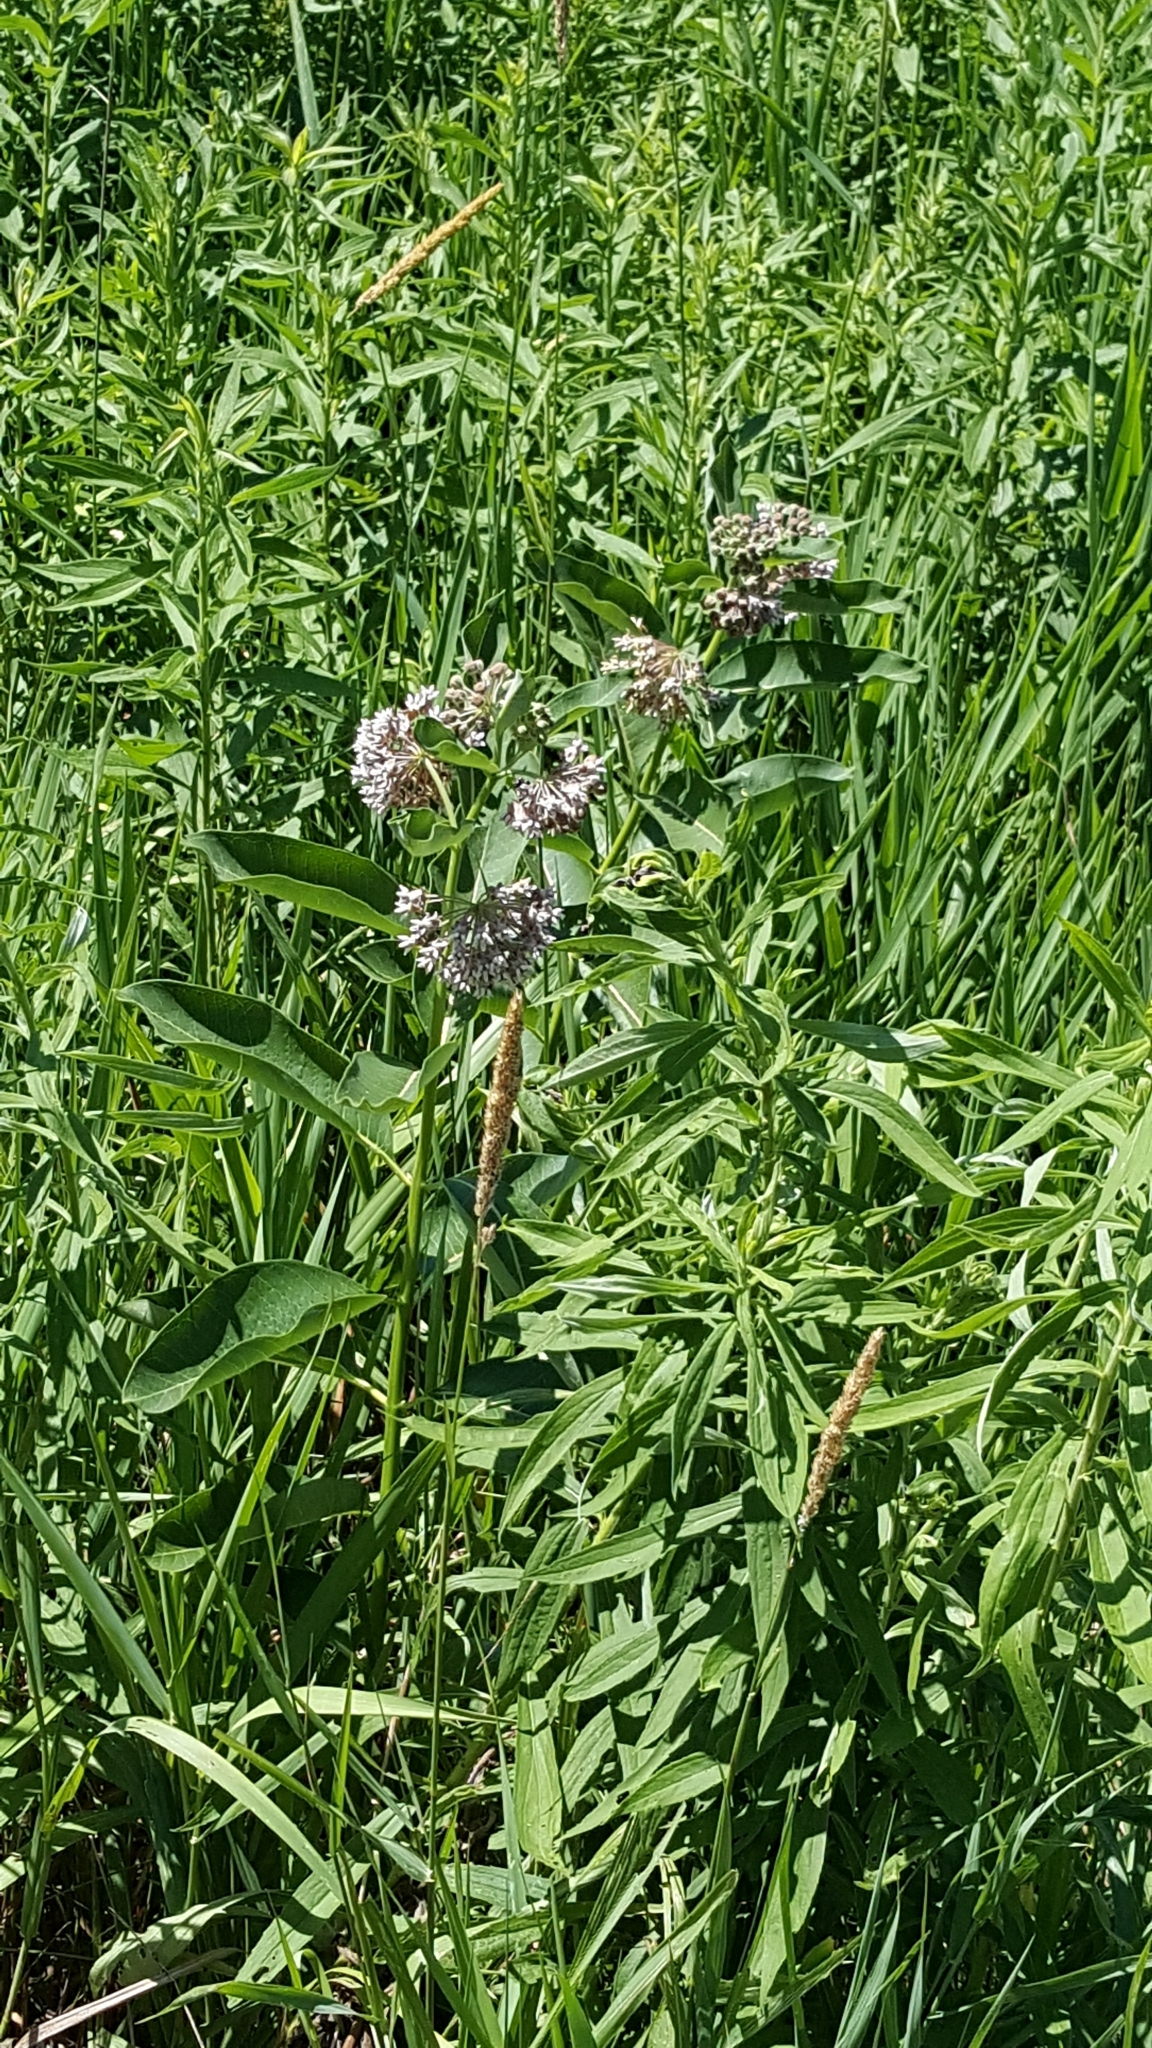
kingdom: Plantae
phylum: Tracheophyta
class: Magnoliopsida
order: Gentianales
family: Apocynaceae
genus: Asclepias
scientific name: Asclepias syriaca
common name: Common milkweed
